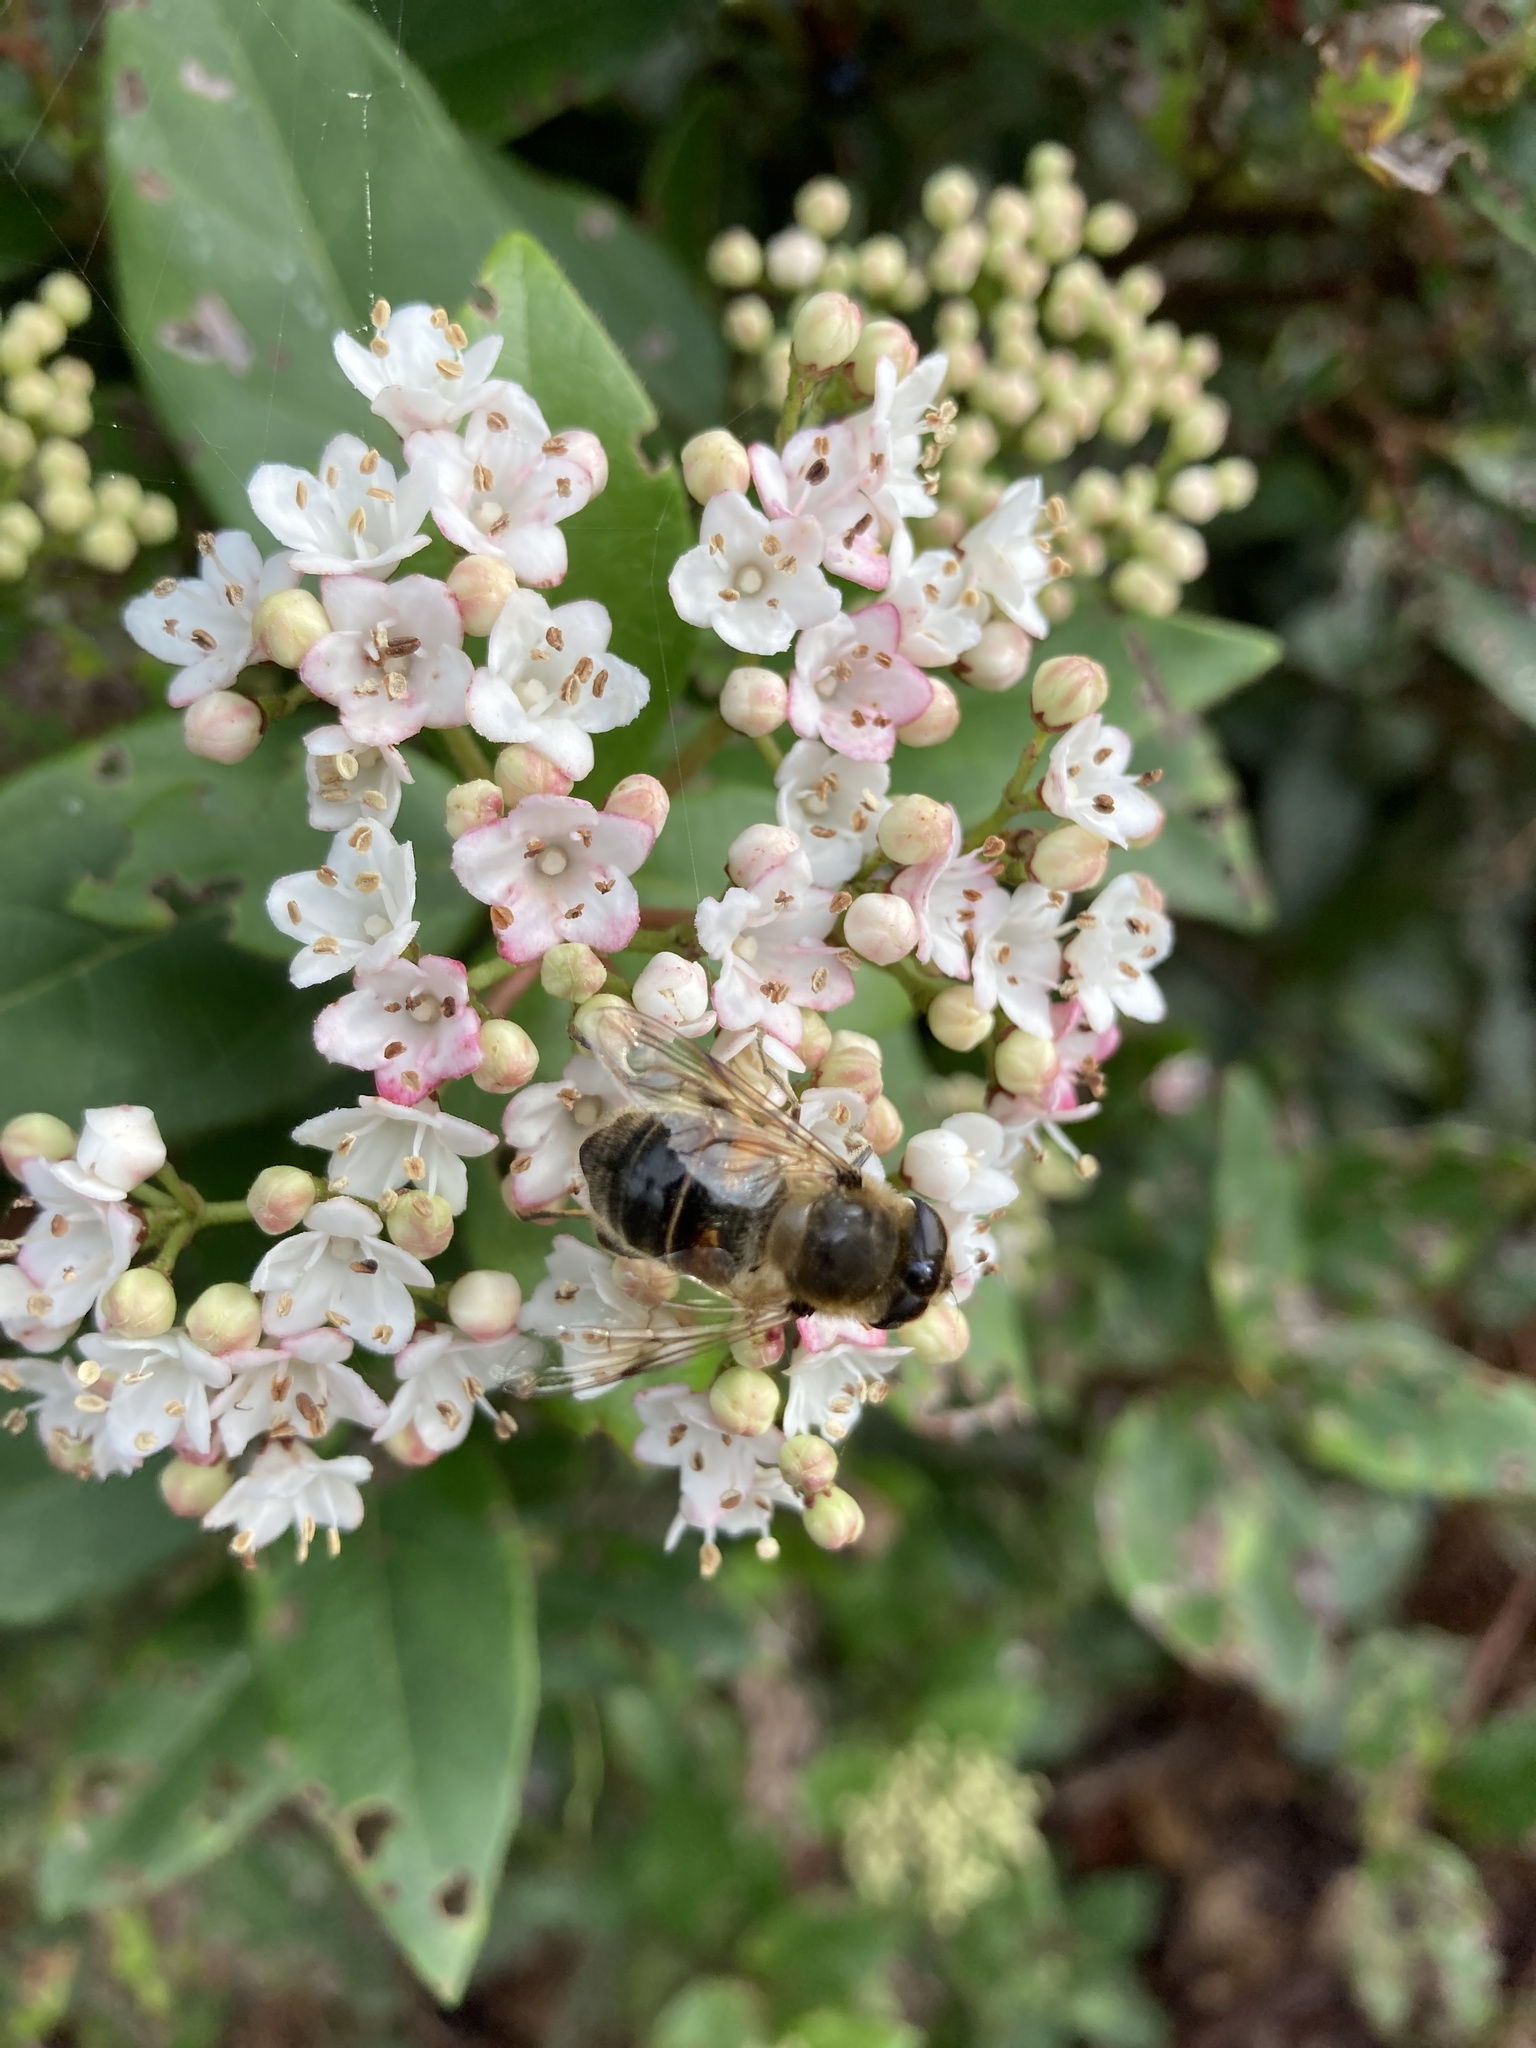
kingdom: Animalia
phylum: Arthropoda
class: Insecta
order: Diptera
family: Syrphidae
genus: Eristalis
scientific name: Eristalis tenax
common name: Drone fly
